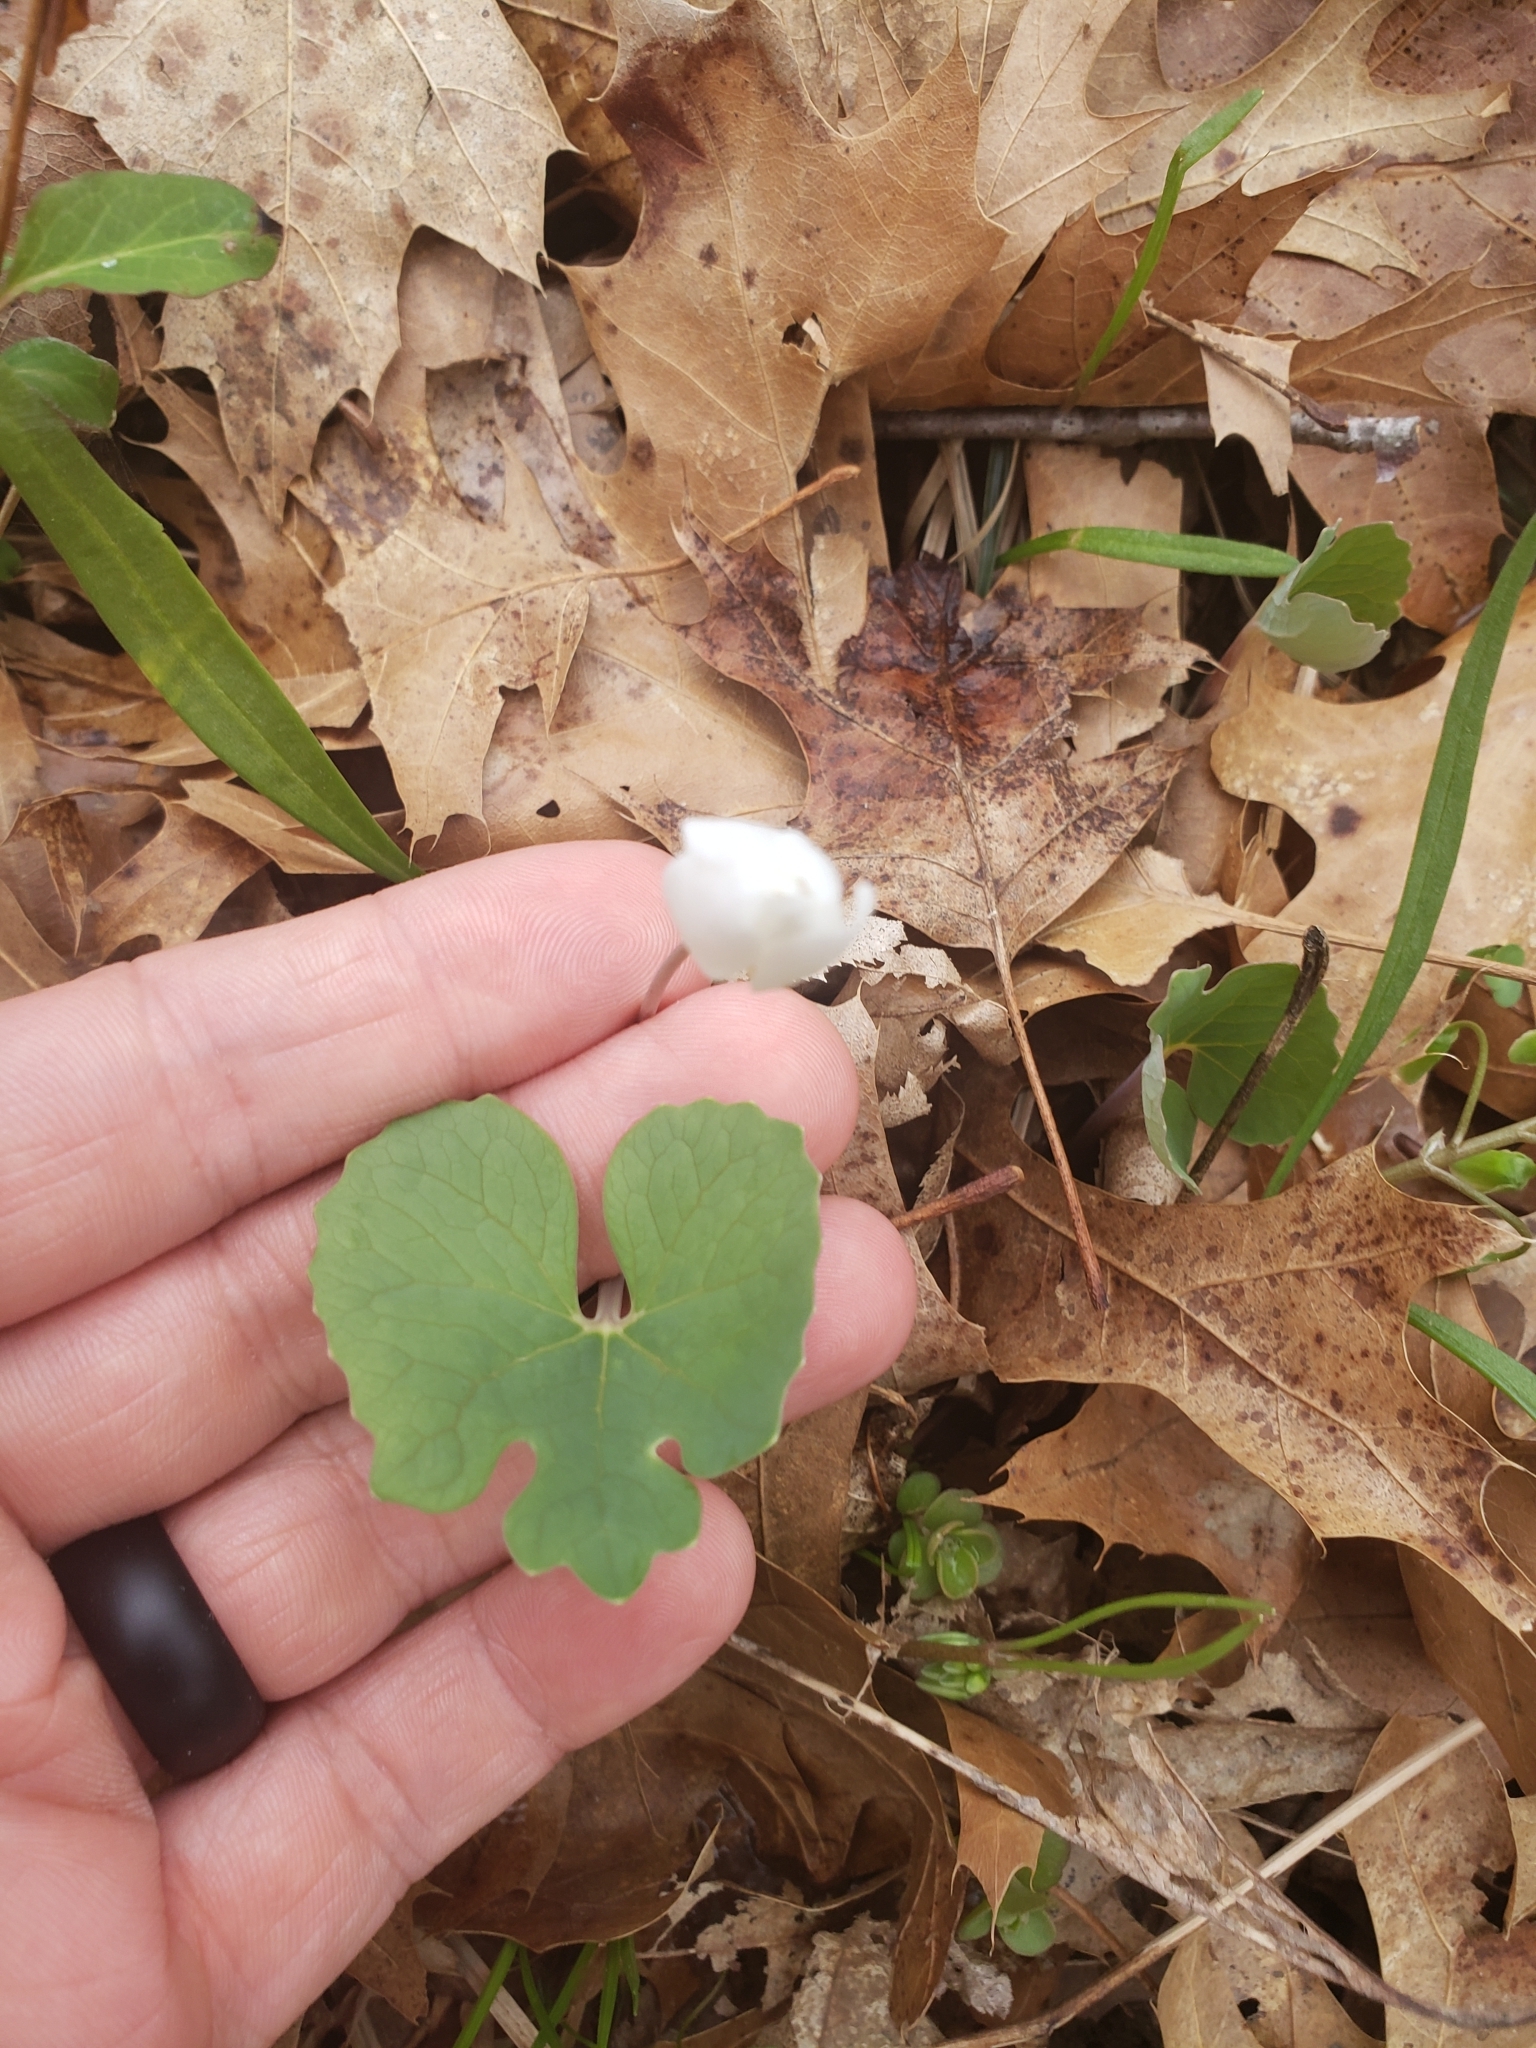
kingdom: Plantae
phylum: Tracheophyta
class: Magnoliopsida
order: Ranunculales
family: Papaveraceae
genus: Sanguinaria
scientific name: Sanguinaria canadensis
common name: Bloodroot
